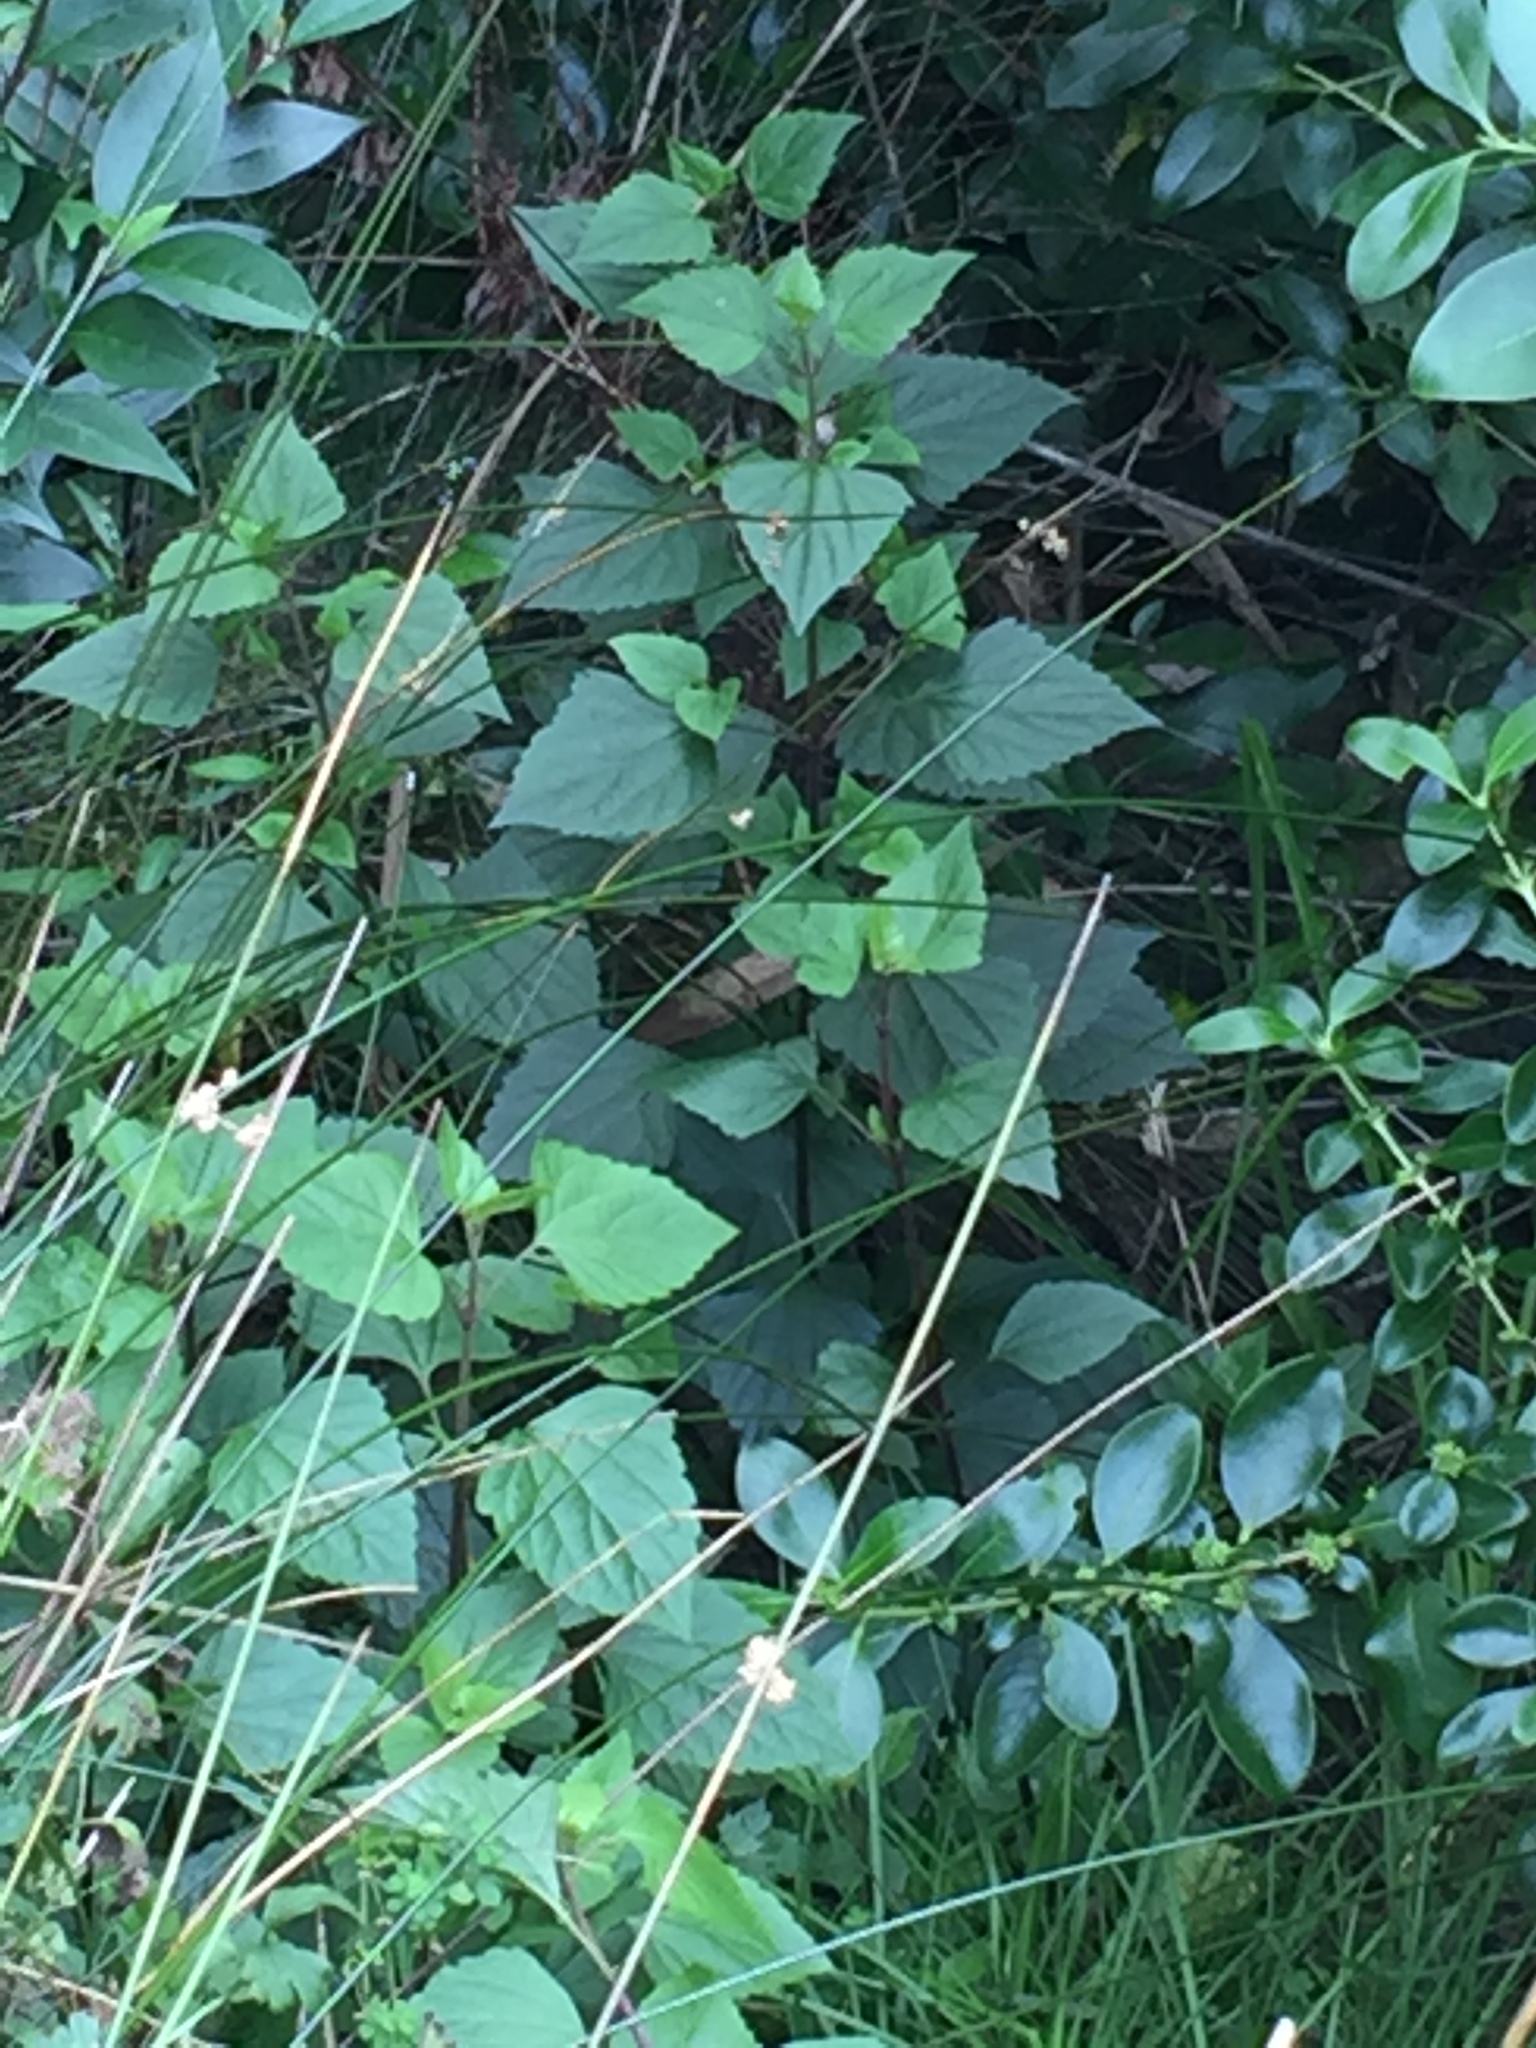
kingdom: Plantae
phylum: Tracheophyta
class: Magnoliopsida
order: Asterales
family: Asteraceae
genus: Ageratina
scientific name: Ageratina adenophora
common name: Sticky snakeroot
